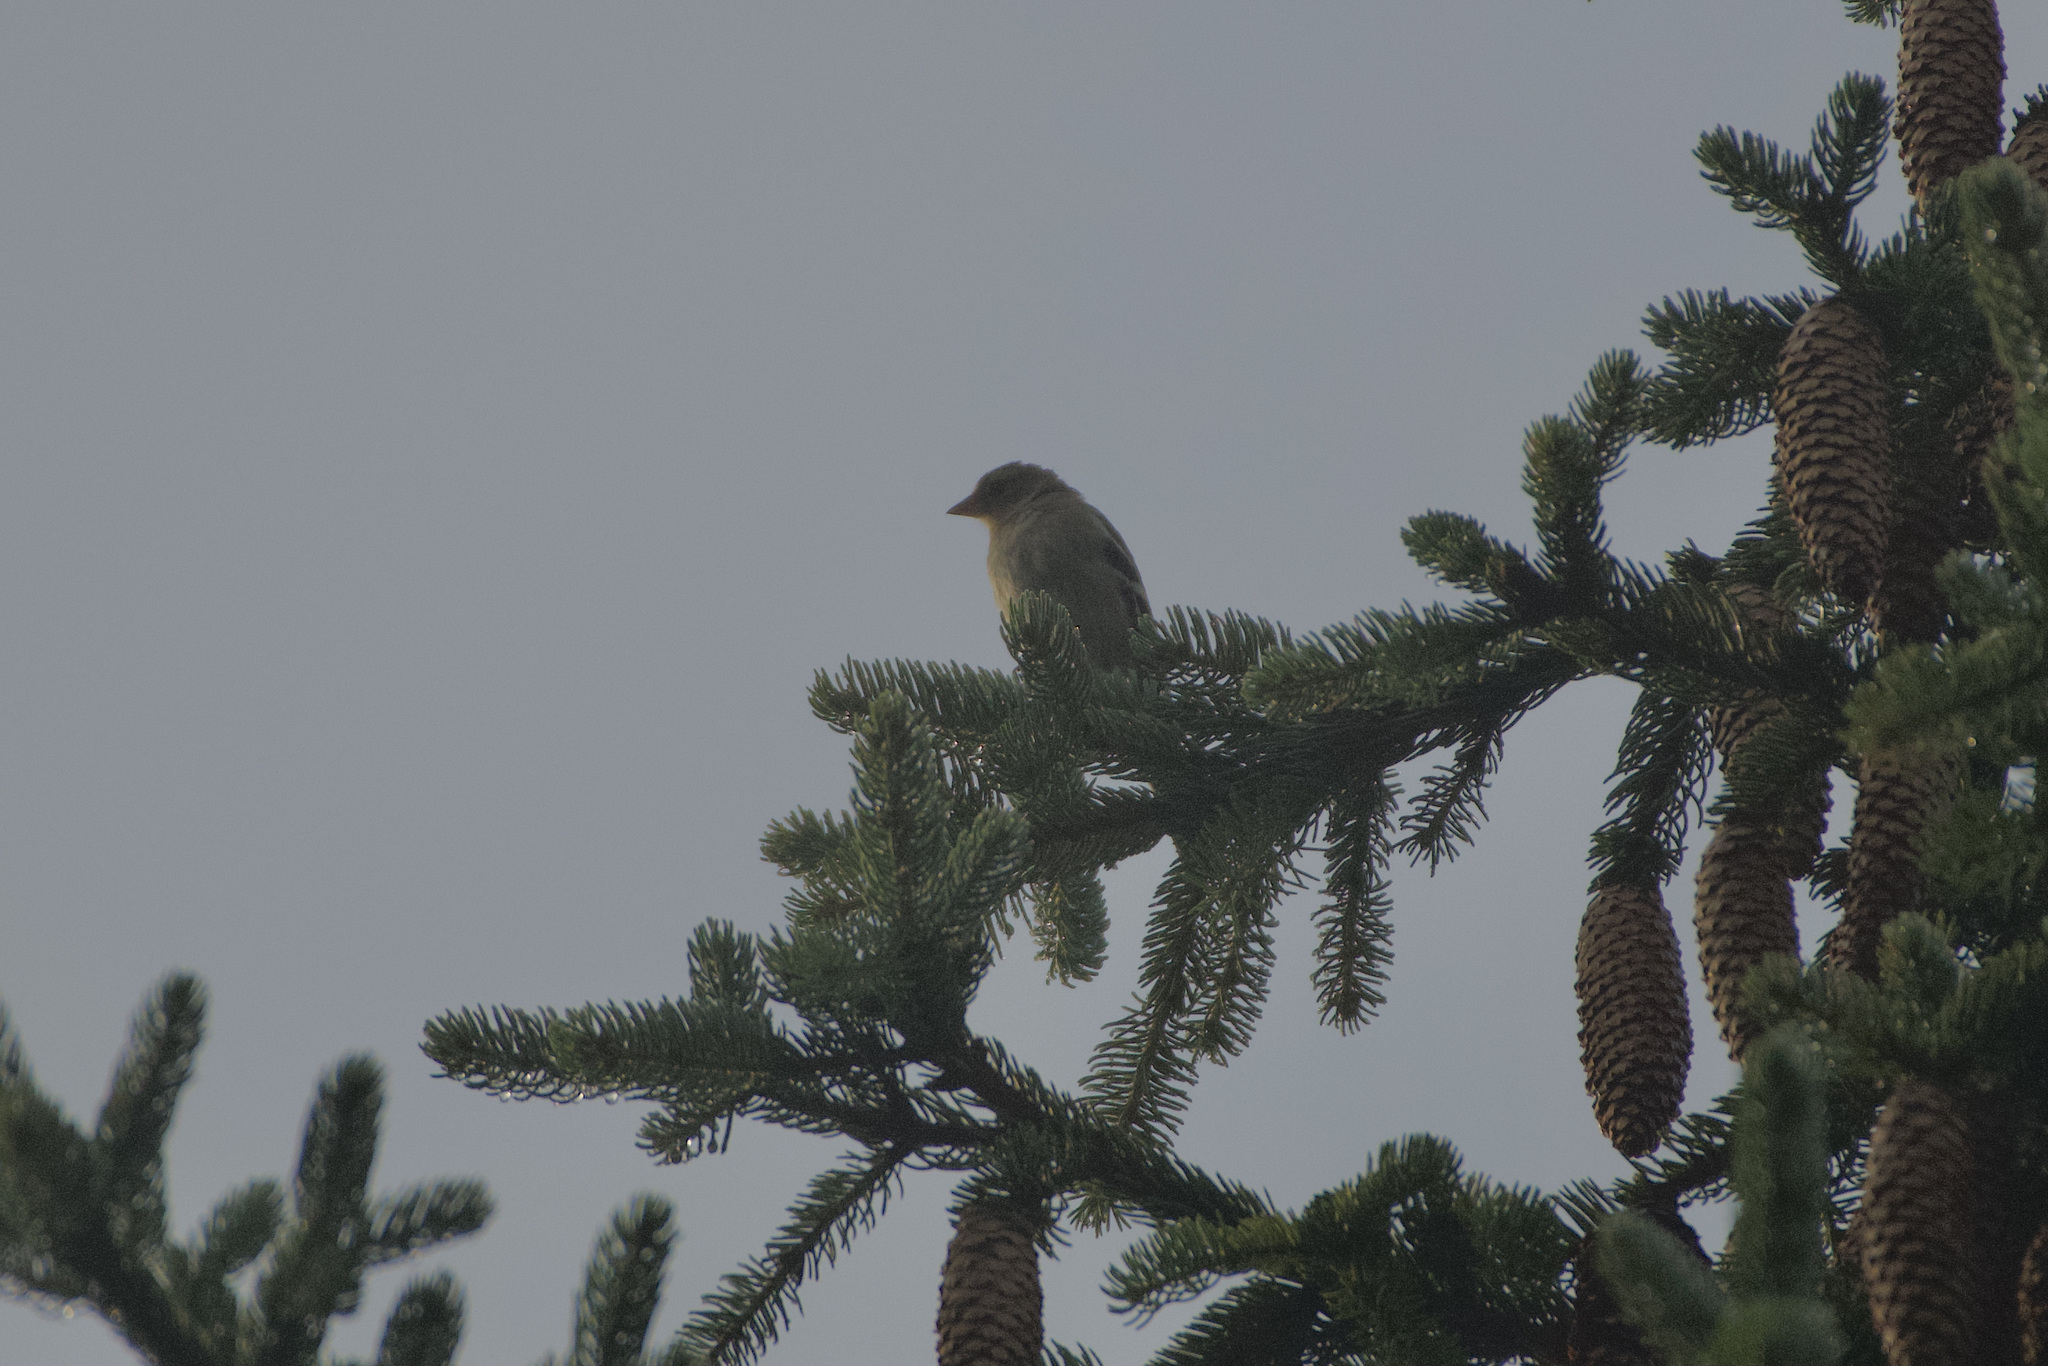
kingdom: Animalia
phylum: Chordata
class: Aves
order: Passeriformes
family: Fringillidae
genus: Fringilla
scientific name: Fringilla coelebs
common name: Common chaffinch
